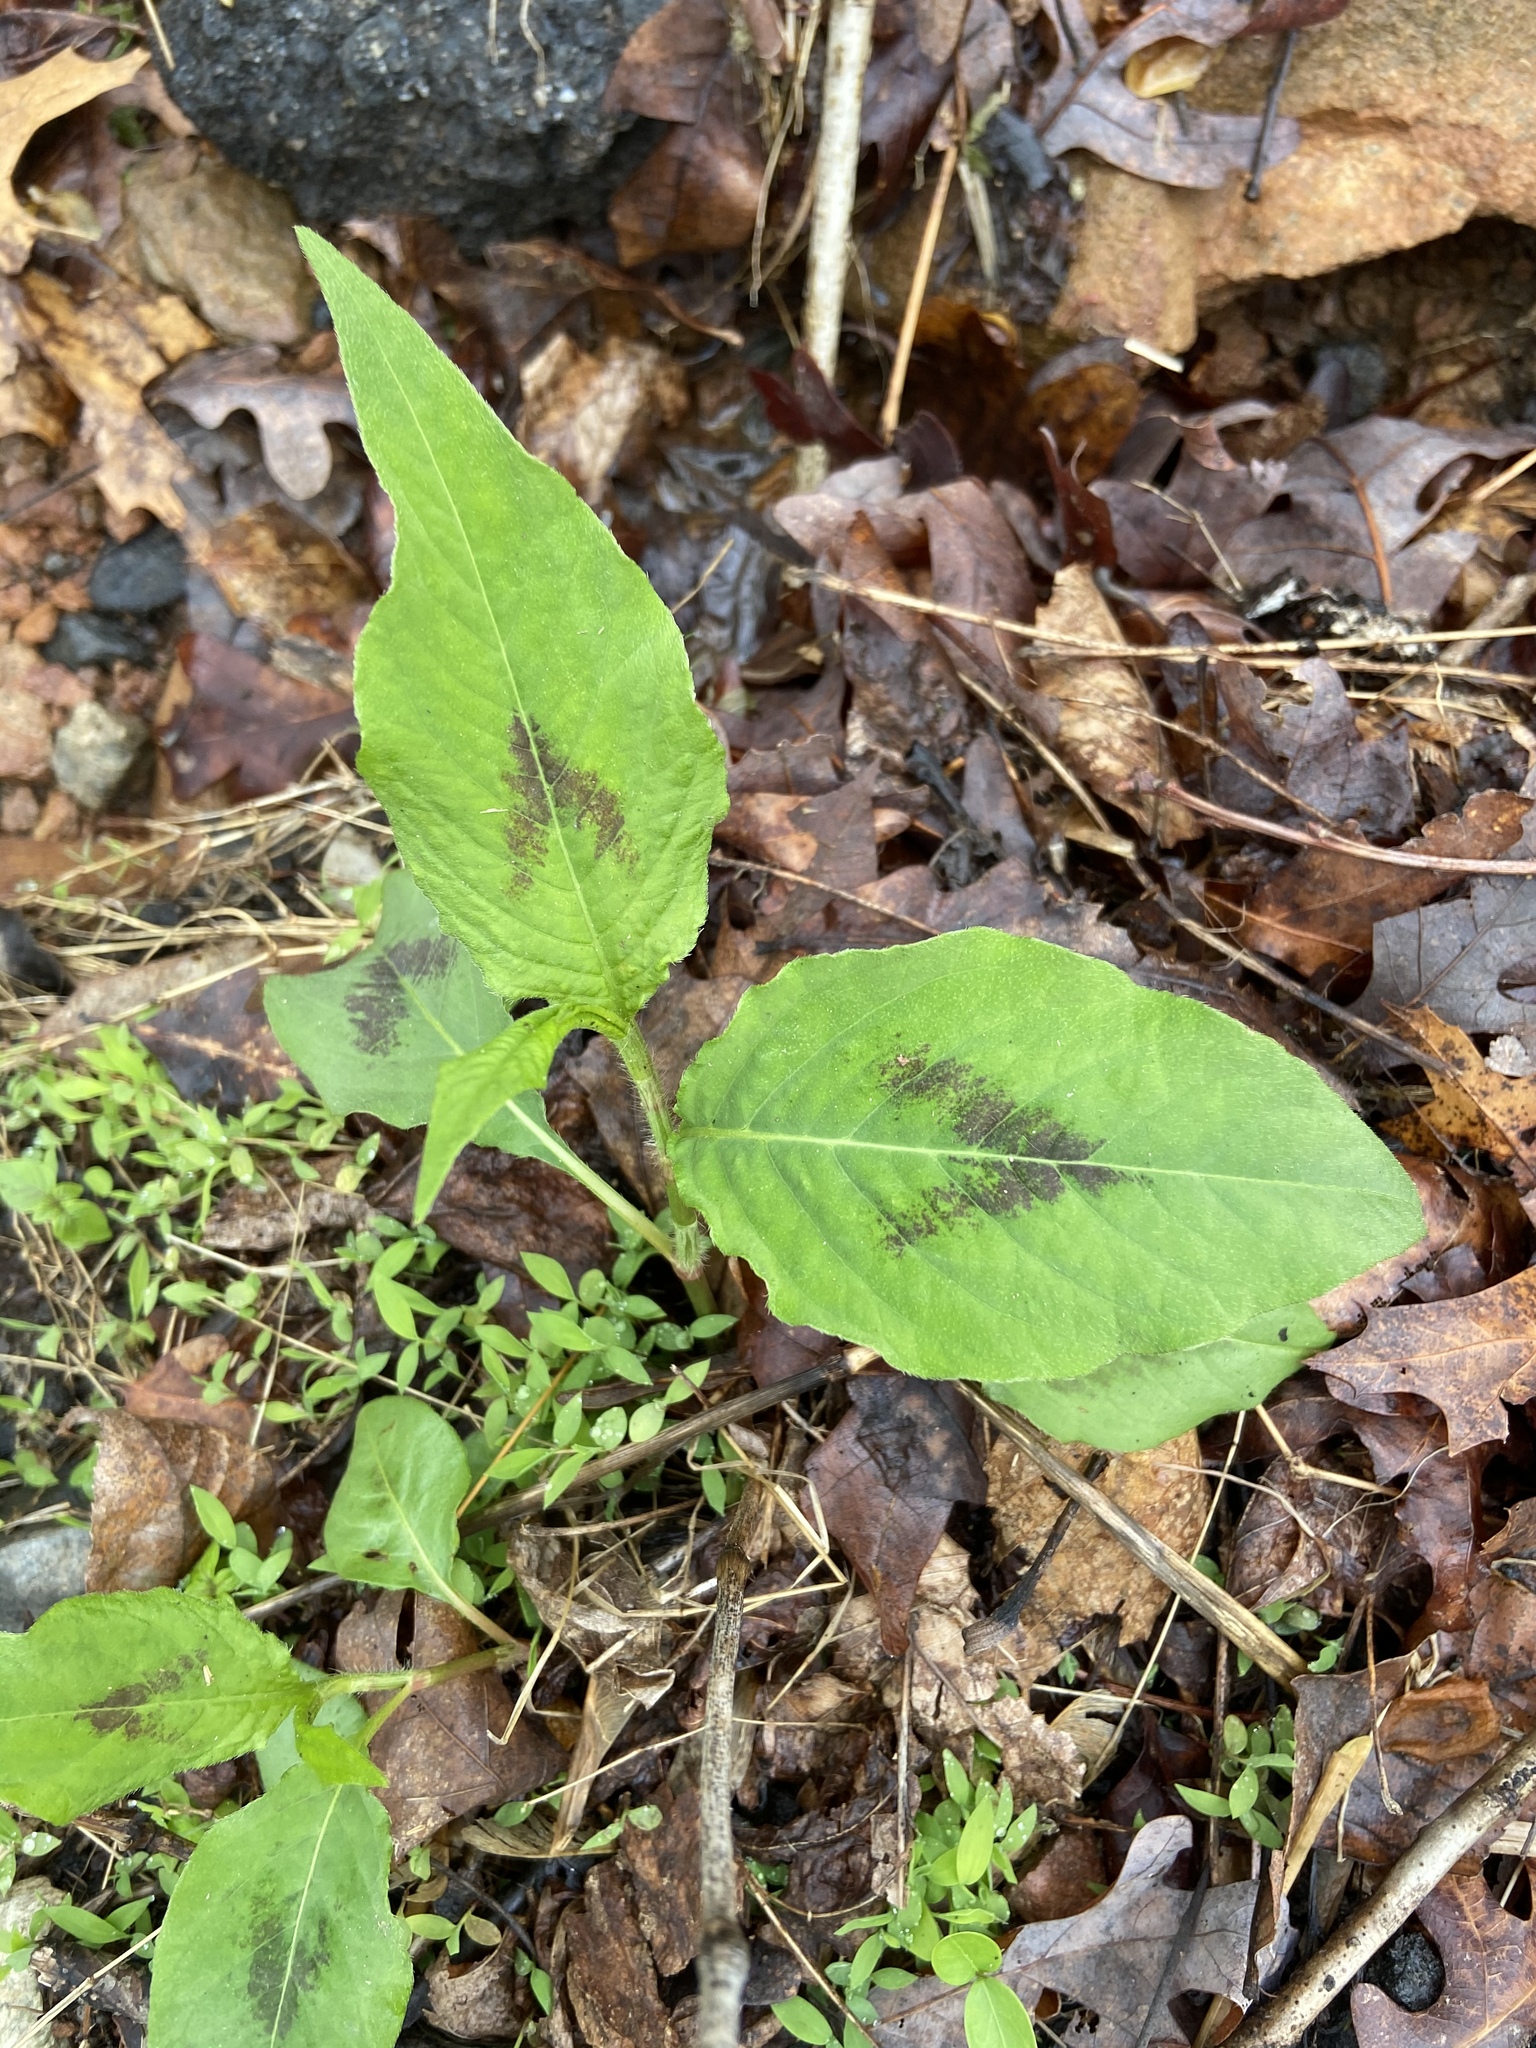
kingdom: Plantae
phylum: Tracheophyta
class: Magnoliopsida
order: Caryophyllales
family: Polygonaceae
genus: Persicaria
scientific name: Persicaria virginiana
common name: Jumpseed
